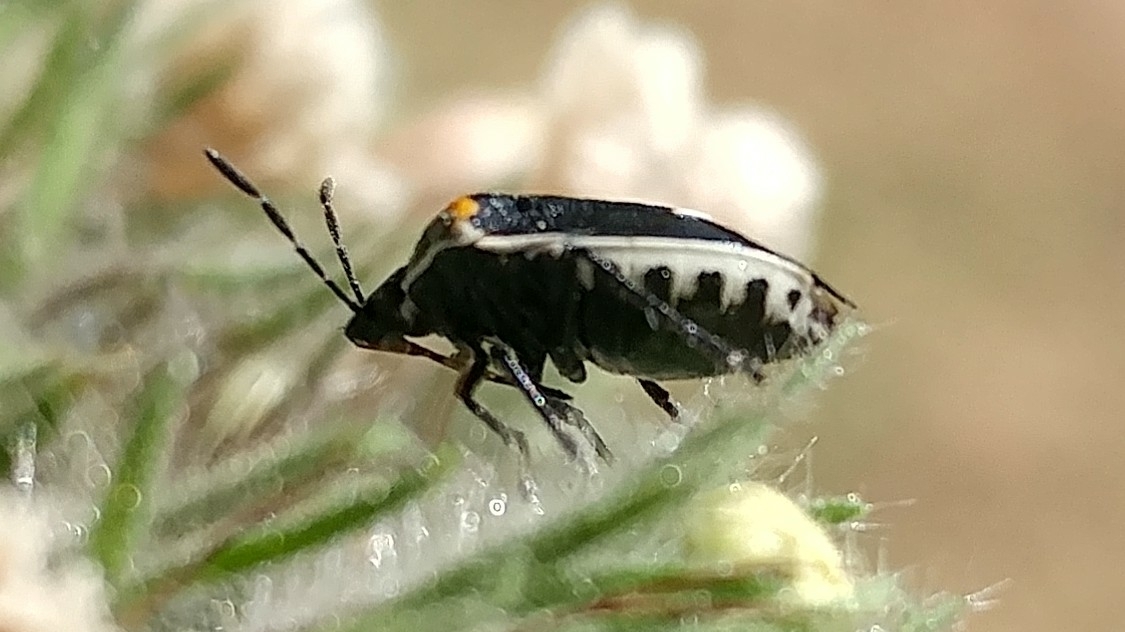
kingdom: Animalia
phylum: Arthropoda
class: Insecta
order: Hemiptera
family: Pentatomidae
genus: Cosmopepla
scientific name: Cosmopepla conspicillaris
